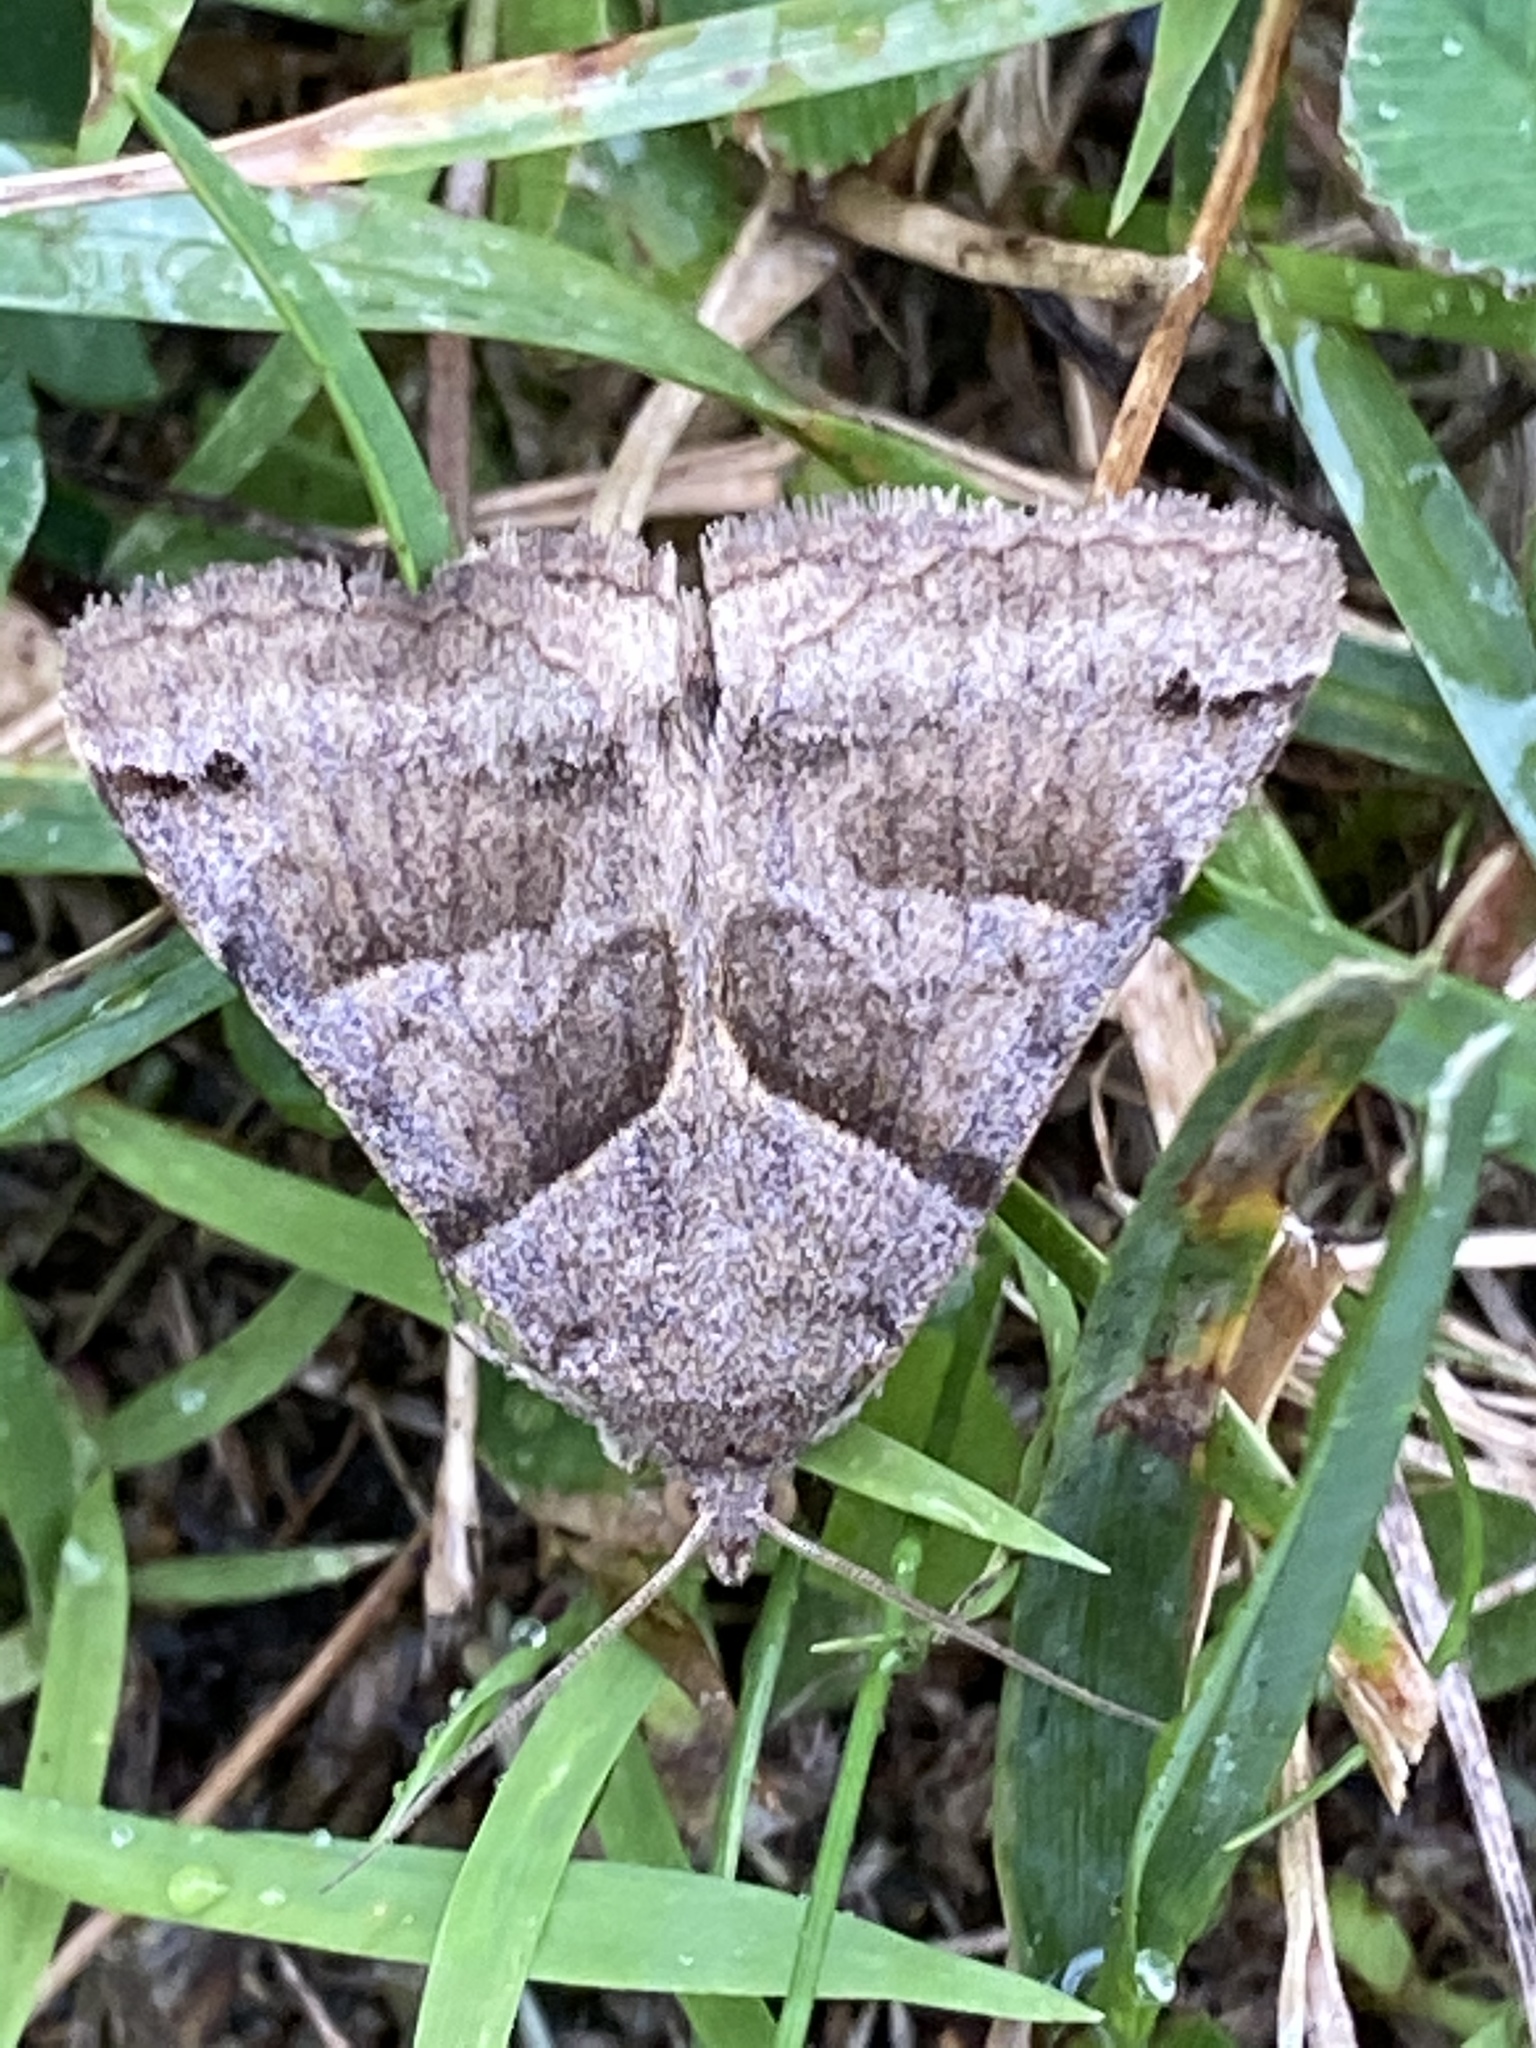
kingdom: Animalia
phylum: Arthropoda
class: Insecta
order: Lepidoptera
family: Erebidae
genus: Caenurgina
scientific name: Caenurgina erechtea
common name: Forage looper moth
